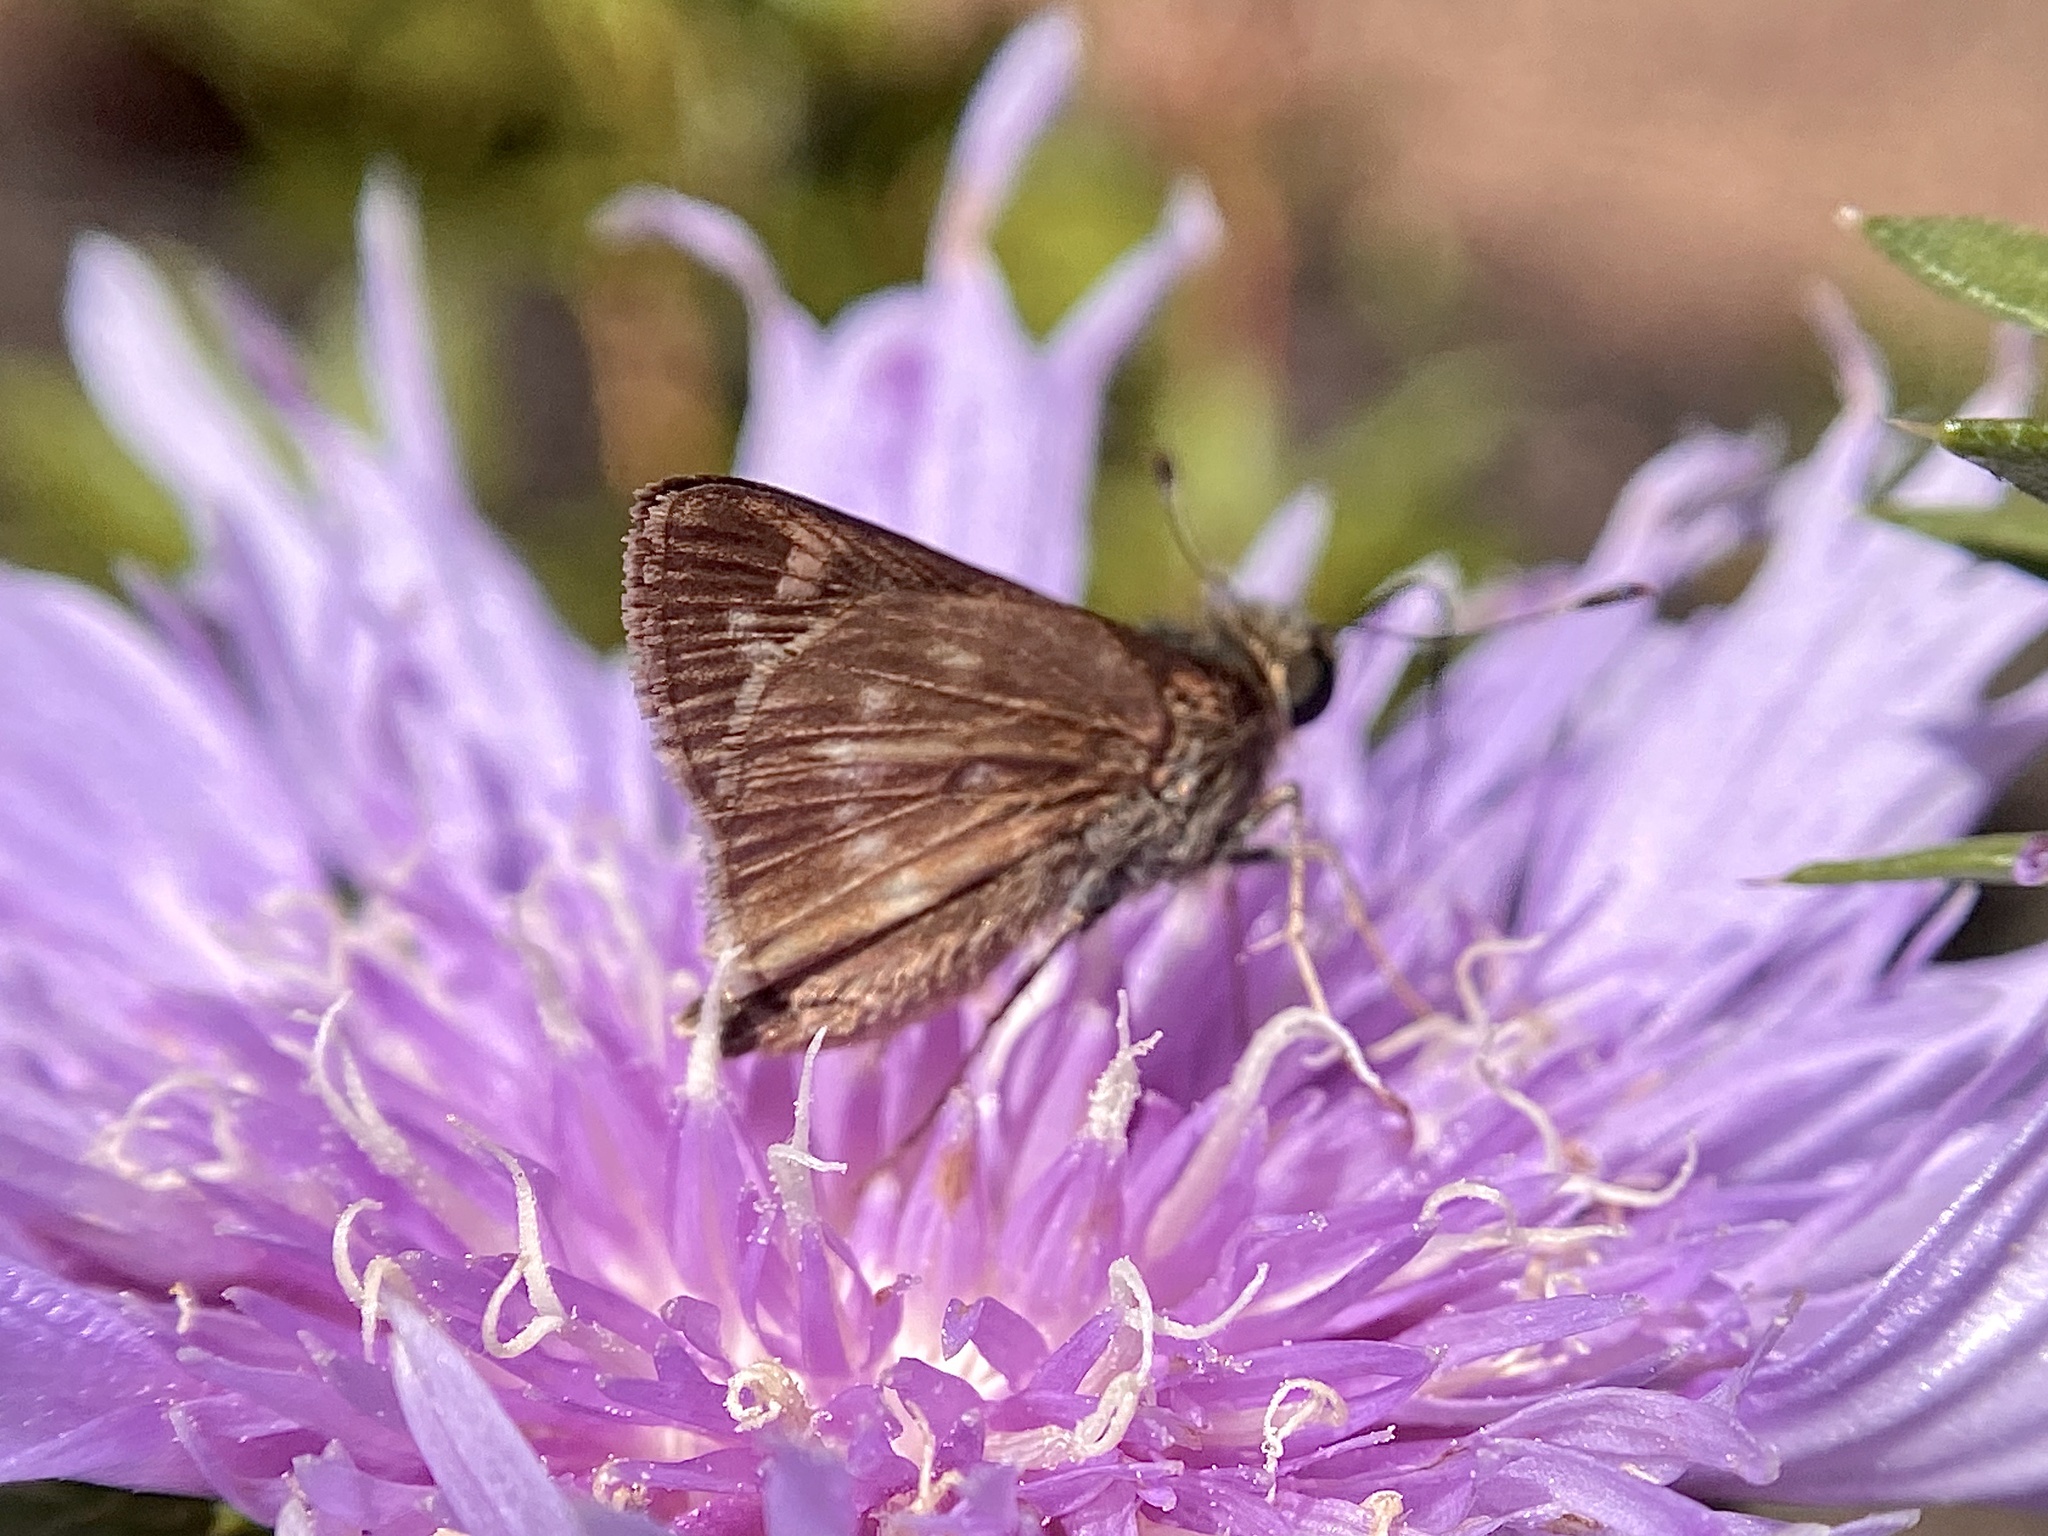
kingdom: Animalia
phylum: Arthropoda
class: Insecta
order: Lepidoptera
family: Hesperiidae
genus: Vernia
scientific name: Vernia verna
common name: Little glassywing
